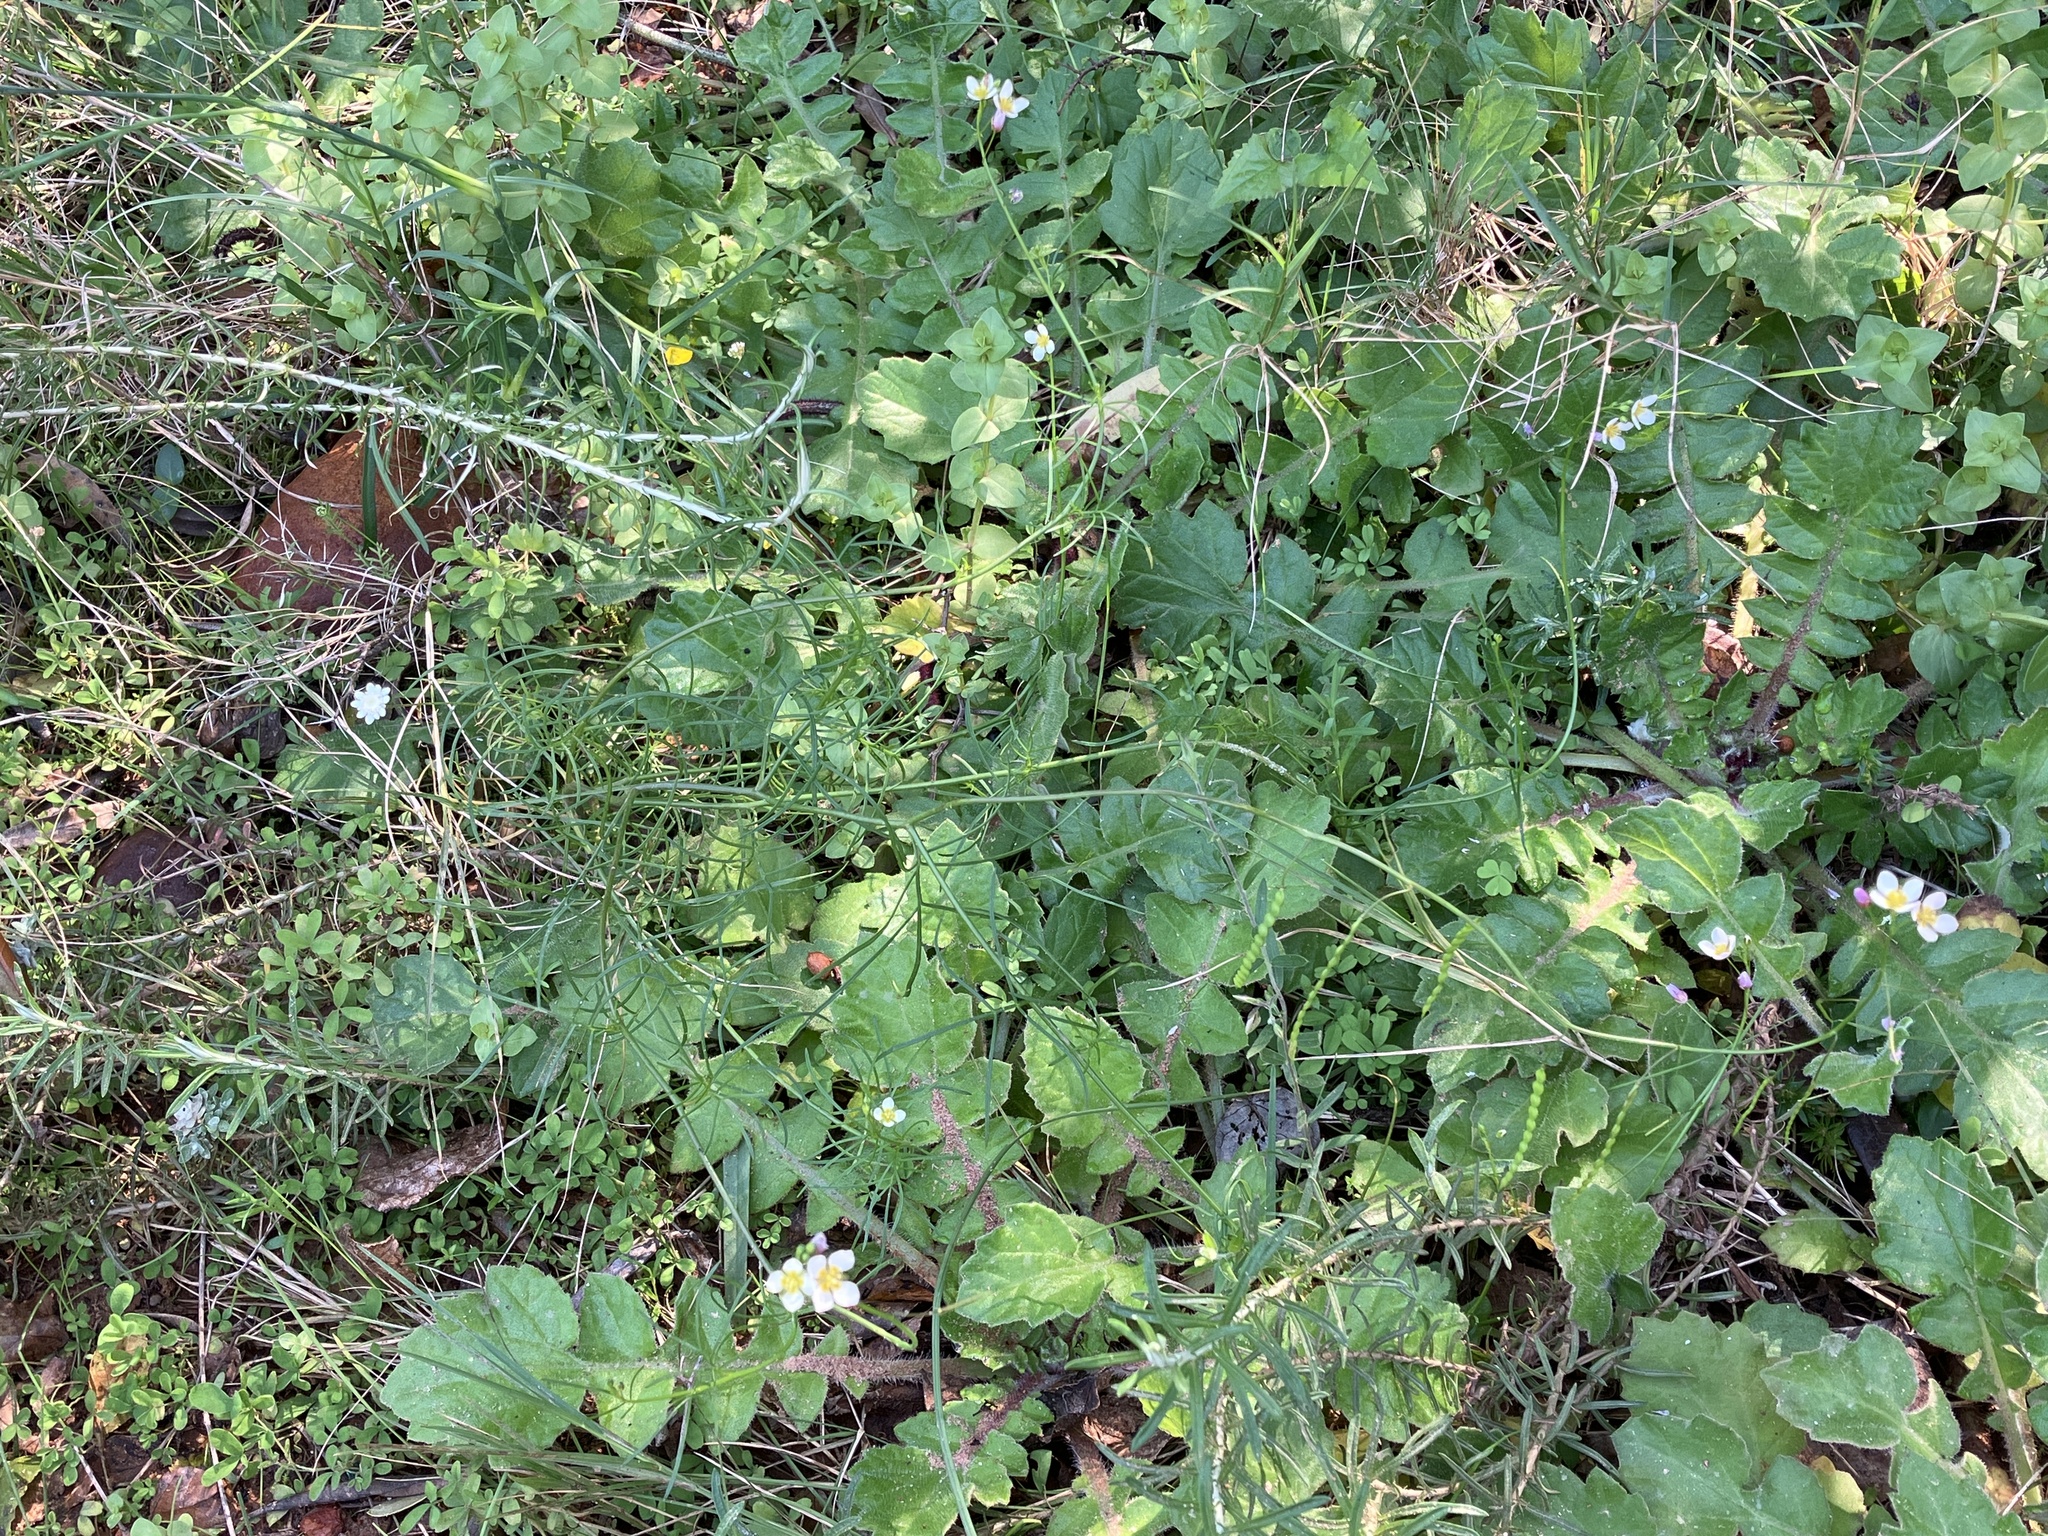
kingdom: Plantae
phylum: Tracheophyta
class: Magnoliopsida
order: Brassicales
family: Brassicaceae
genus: Heliophila
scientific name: Heliophila pendula
